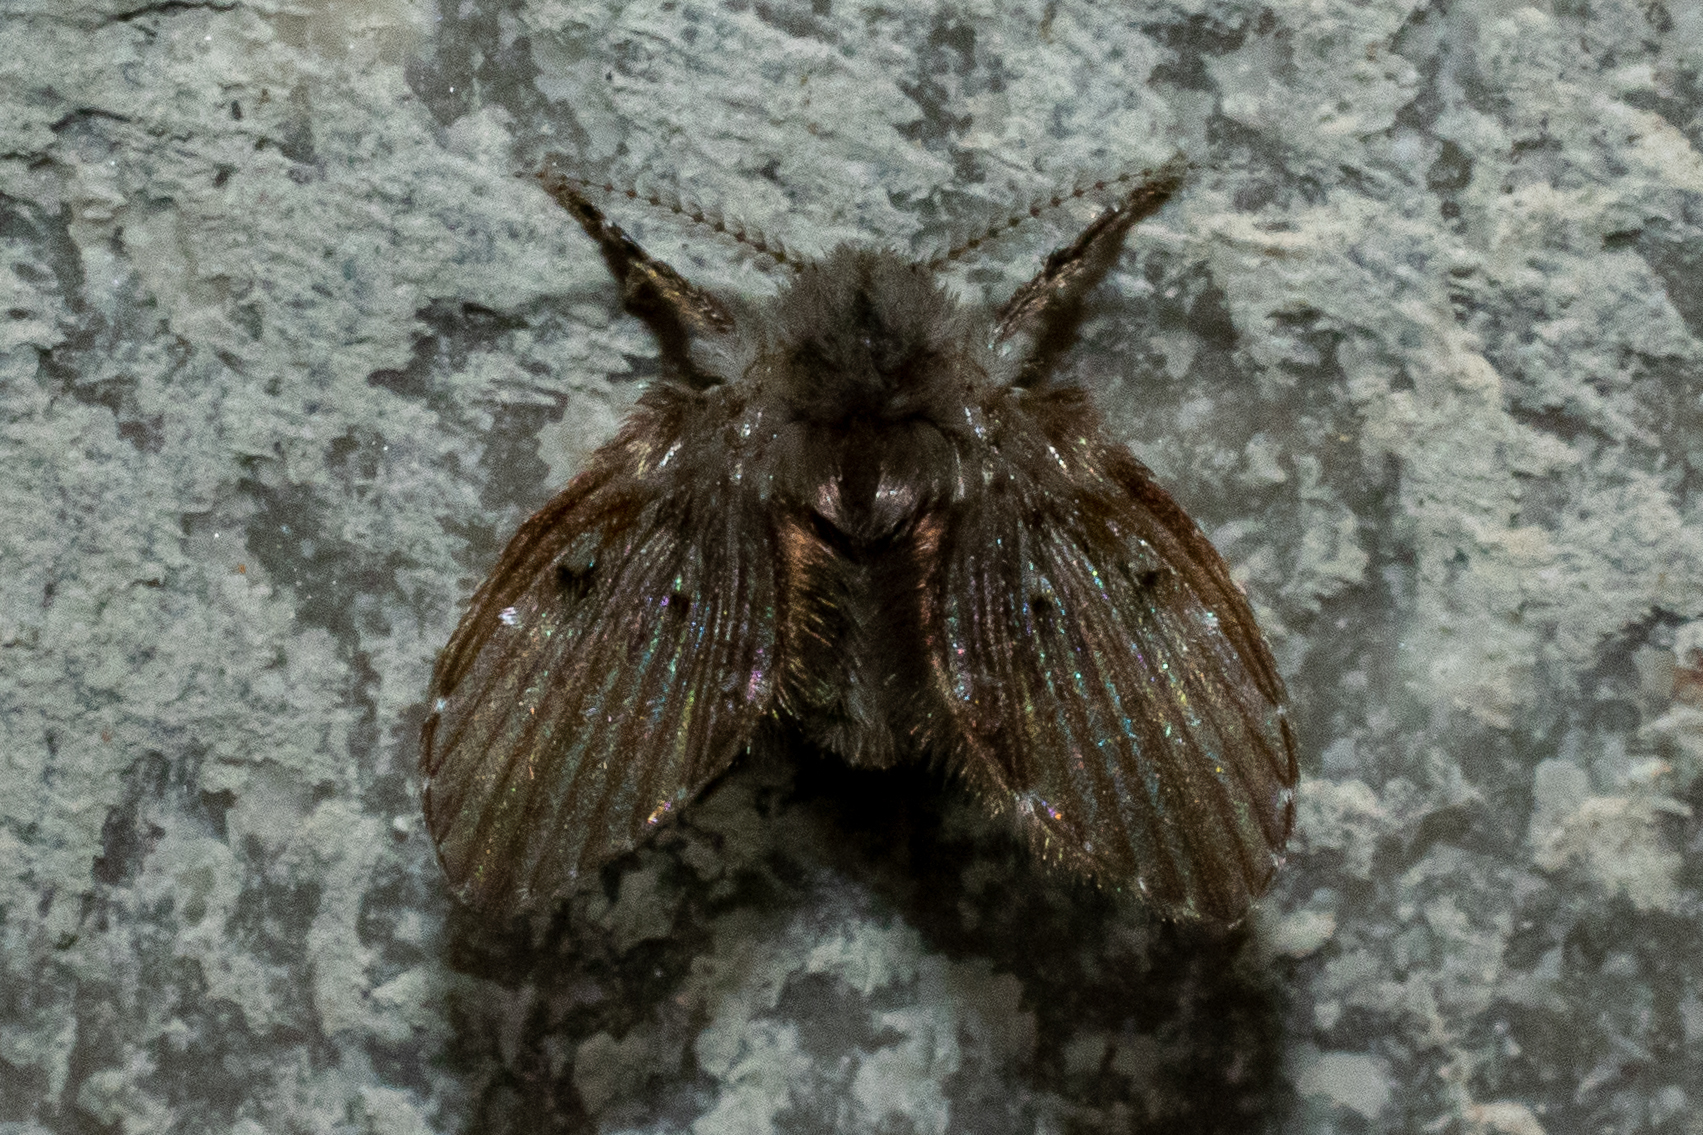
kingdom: Animalia
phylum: Arthropoda
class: Insecta
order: Diptera
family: Psychodidae
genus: Clogmia
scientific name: Clogmia albipunctatus
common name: White-spotted moth fly
